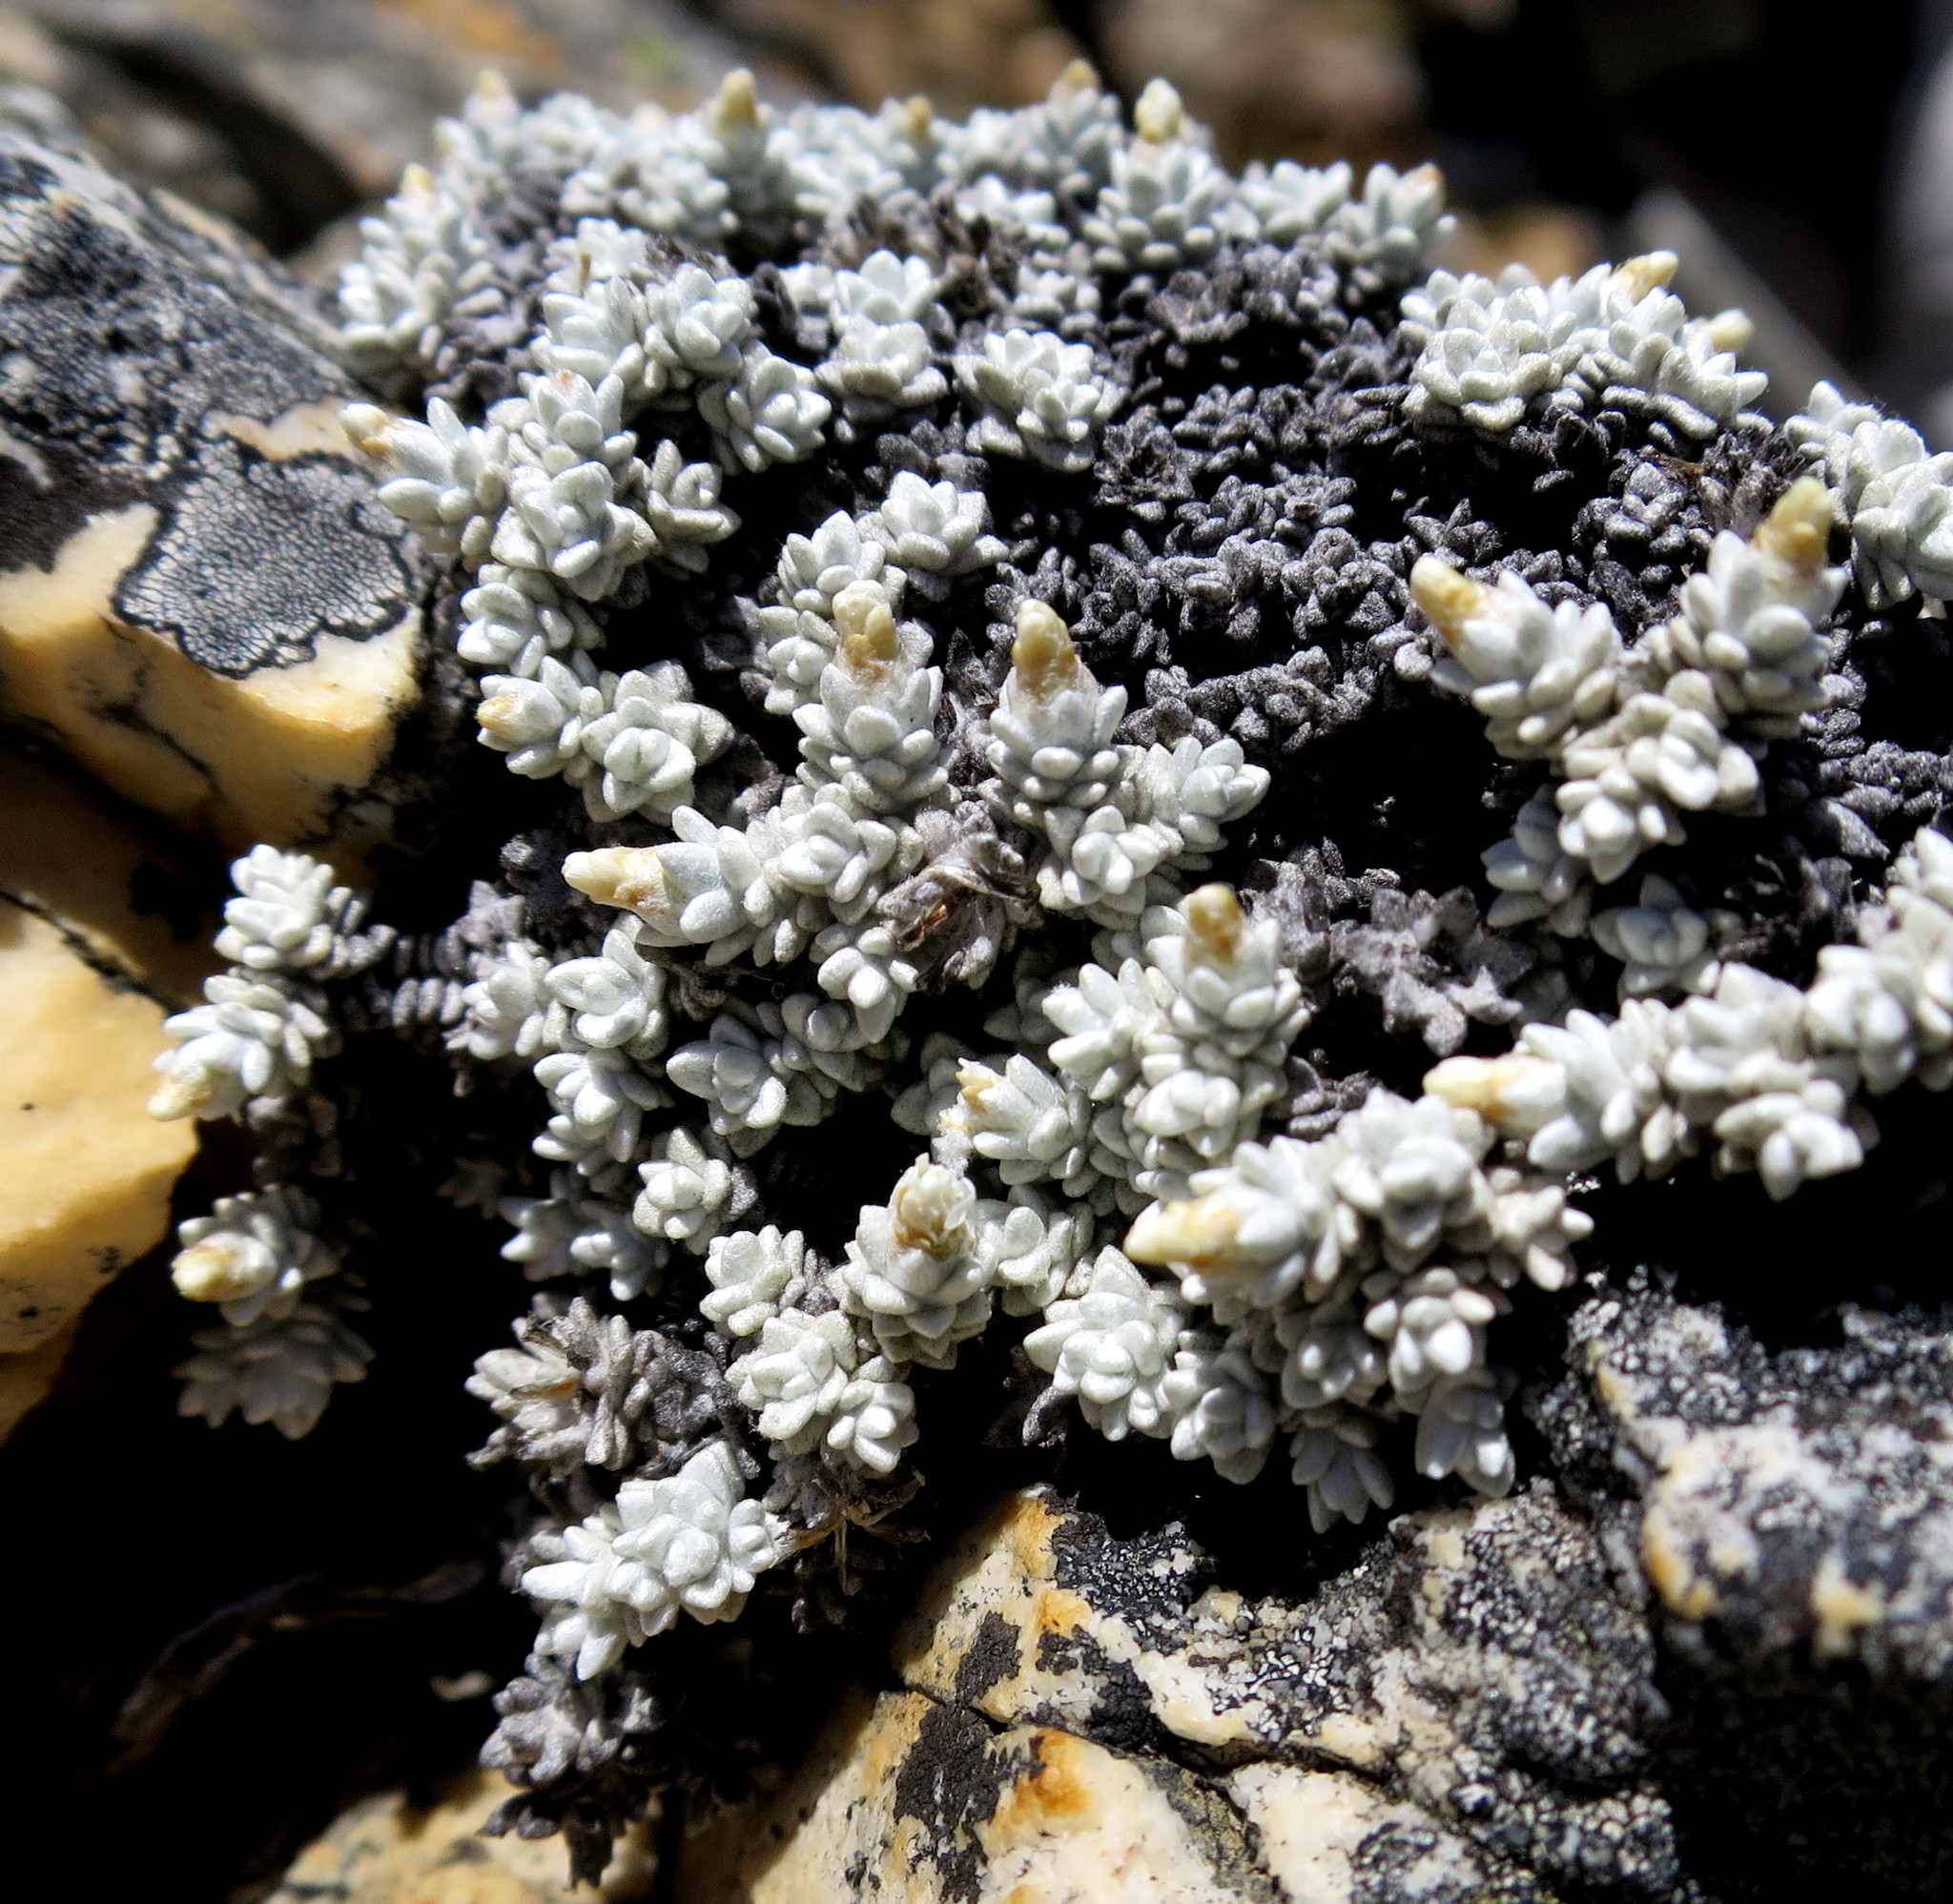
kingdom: Plantae
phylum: Tracheophyta
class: Magnoliopsida
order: Asterales
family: Asteraceae
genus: Helichrysum
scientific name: Helichrysum saxicola
